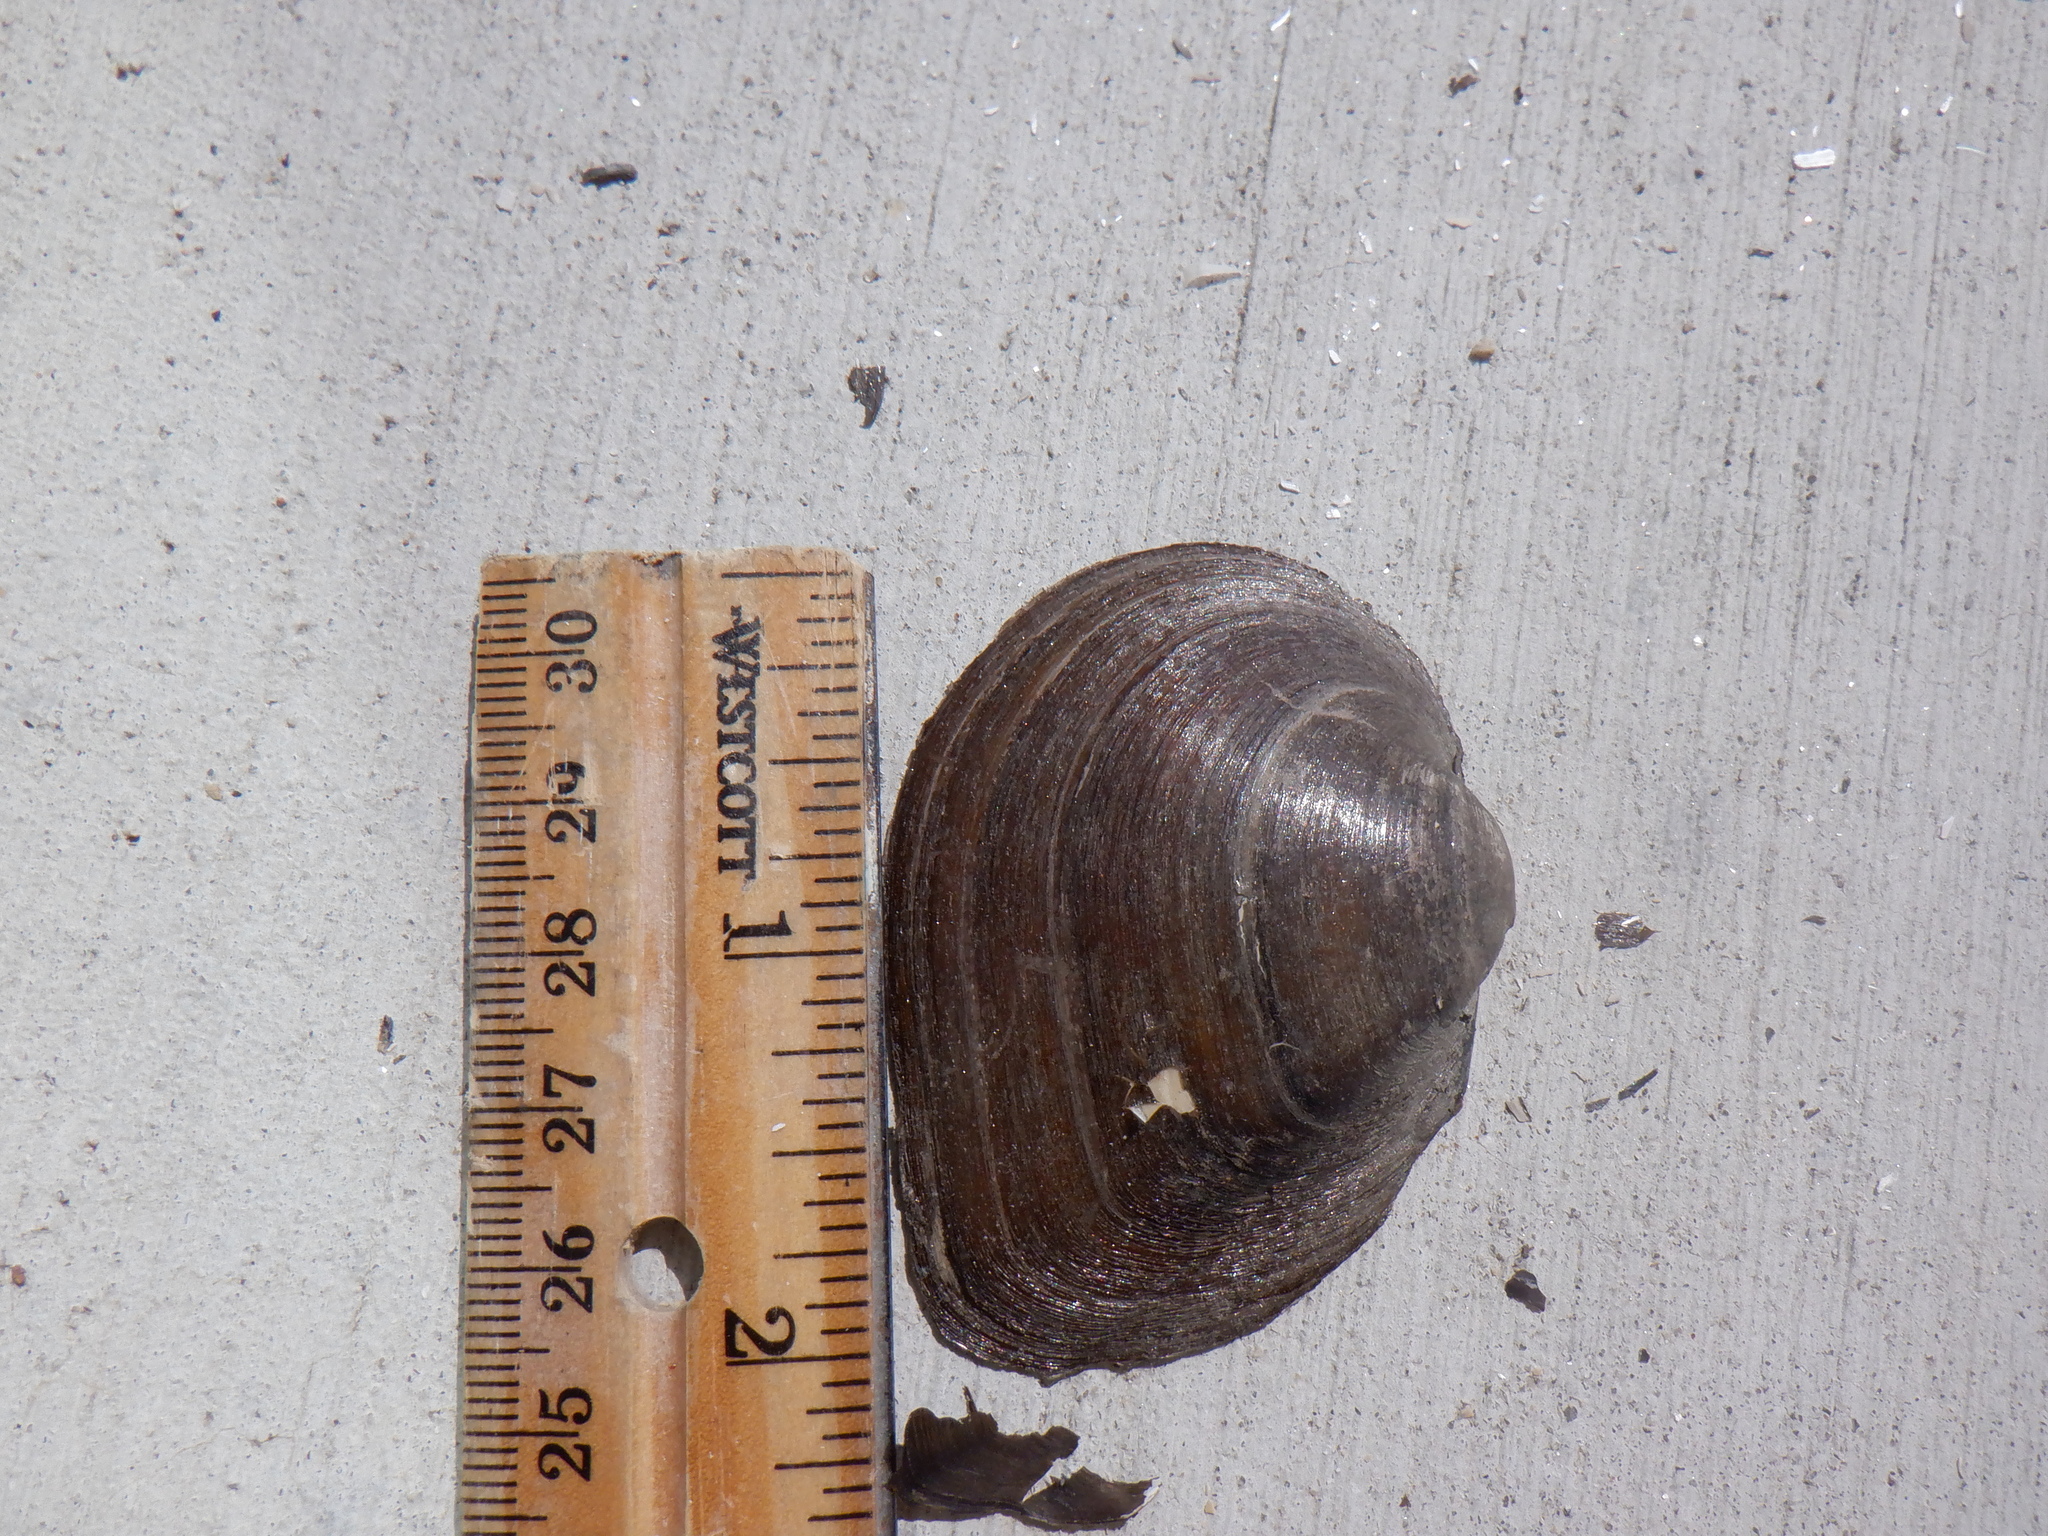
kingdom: Animalia
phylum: Mollusca
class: Bivalvia
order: Unionida
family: Unionidae
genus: Fusconaia
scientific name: Fusconaia flava
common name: Wabash pigtoe
